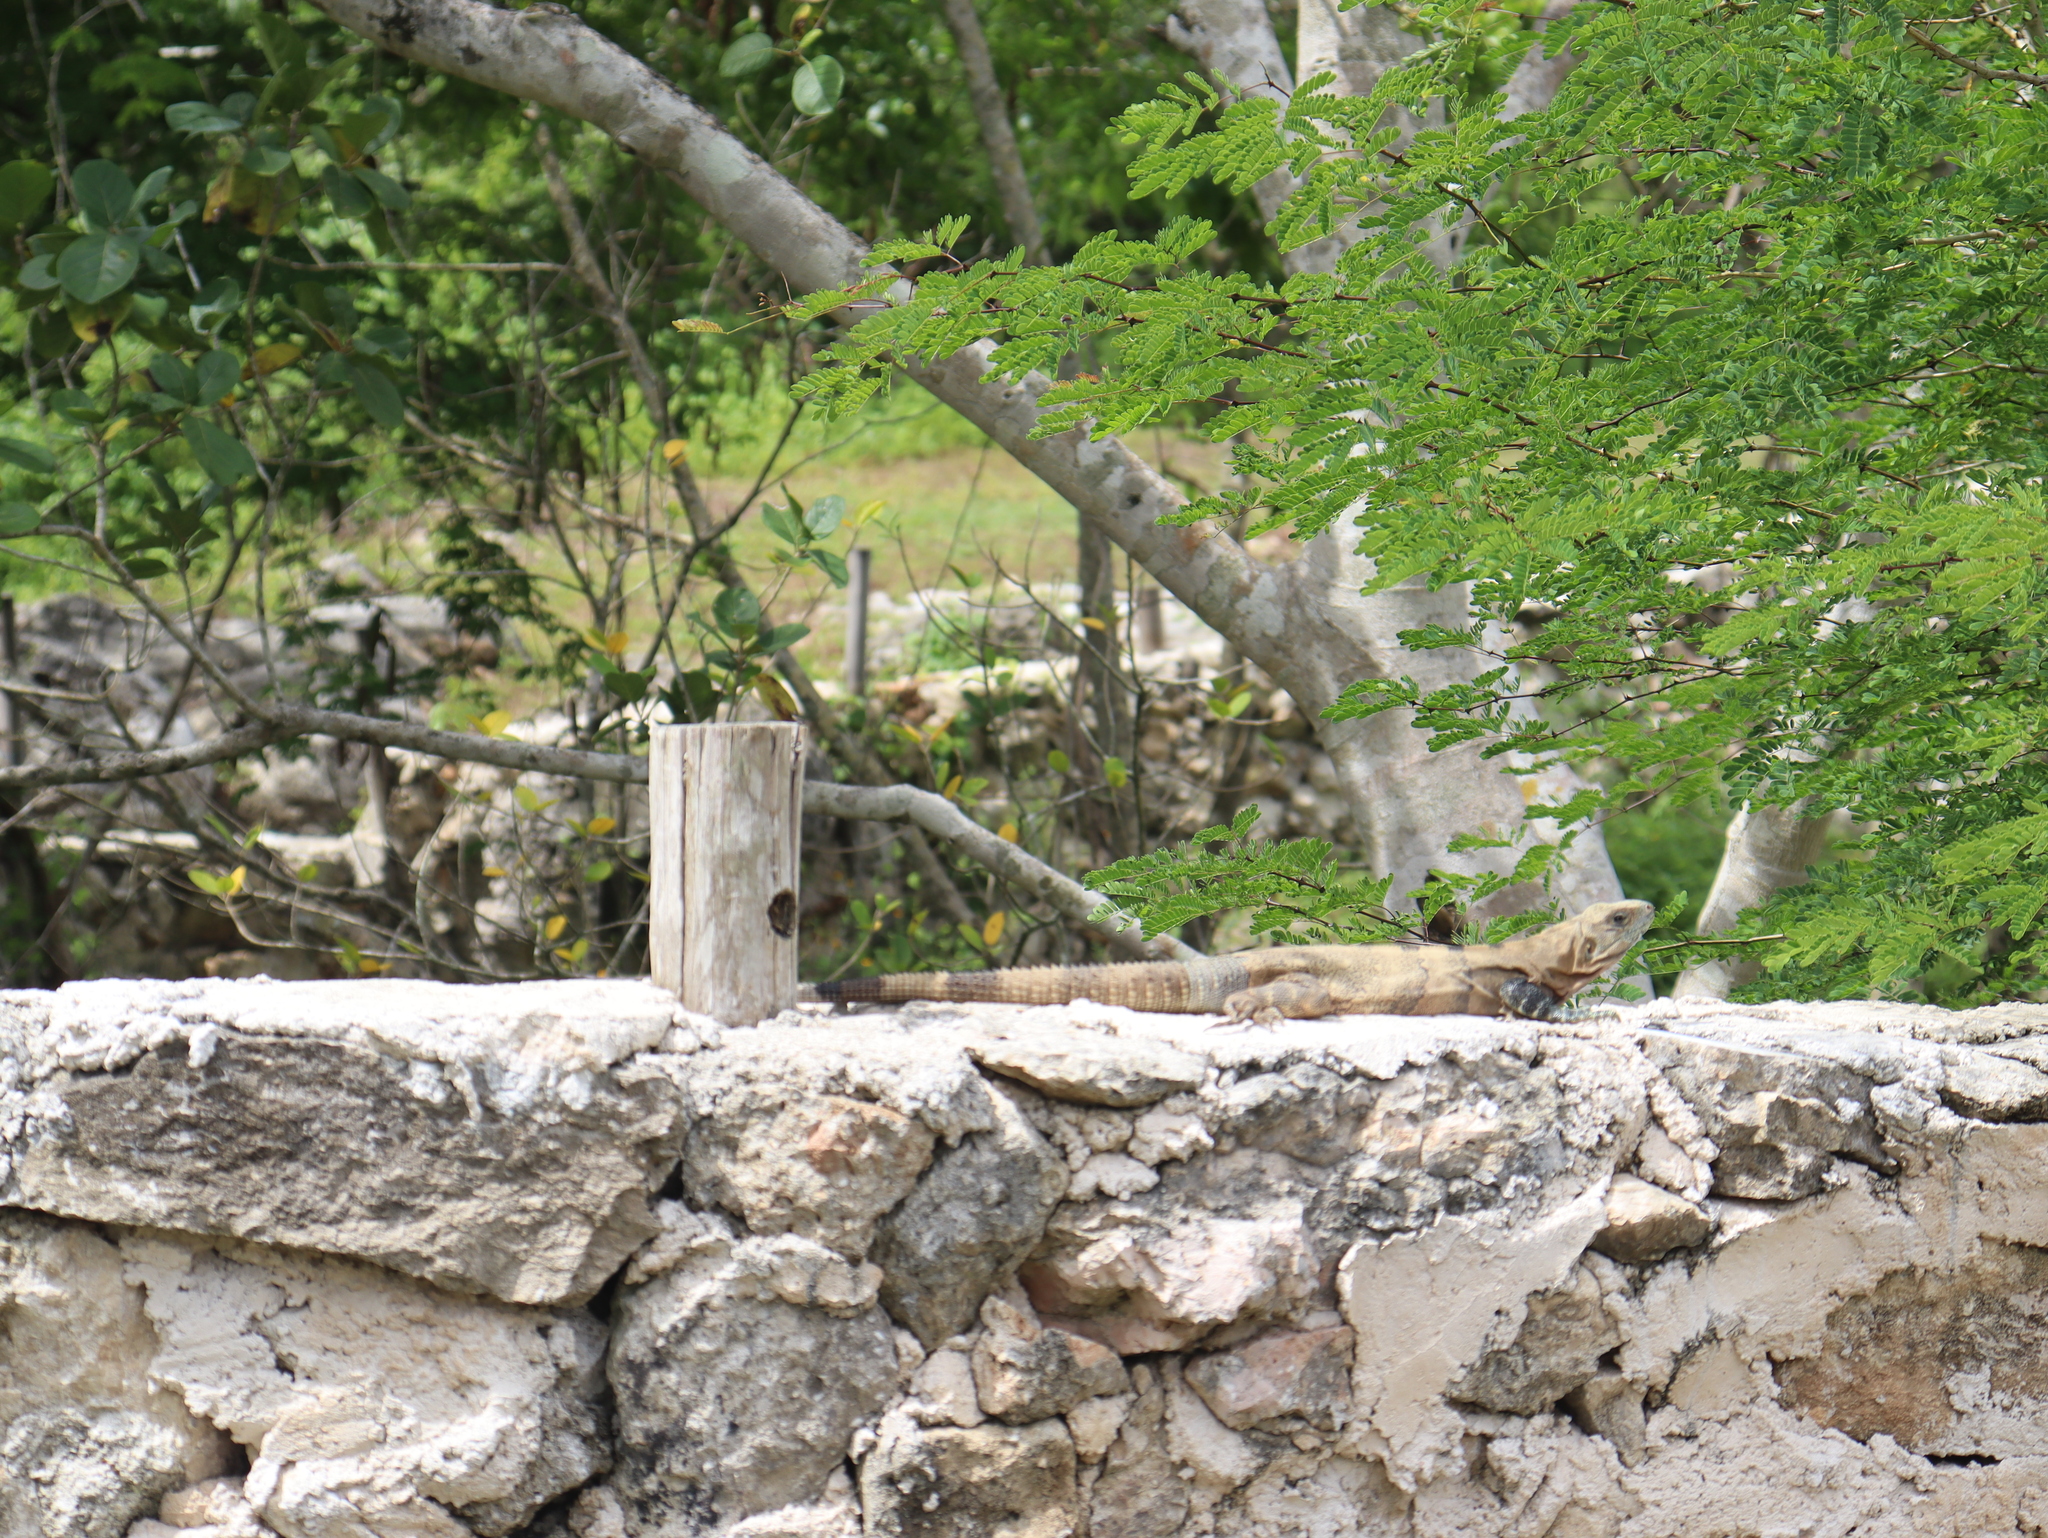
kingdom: Animalia
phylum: Chordata
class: Squamata
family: Iguanidae
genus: Ctenosaura
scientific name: Ctenosaura similis
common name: Black spiny-tailed iguana
